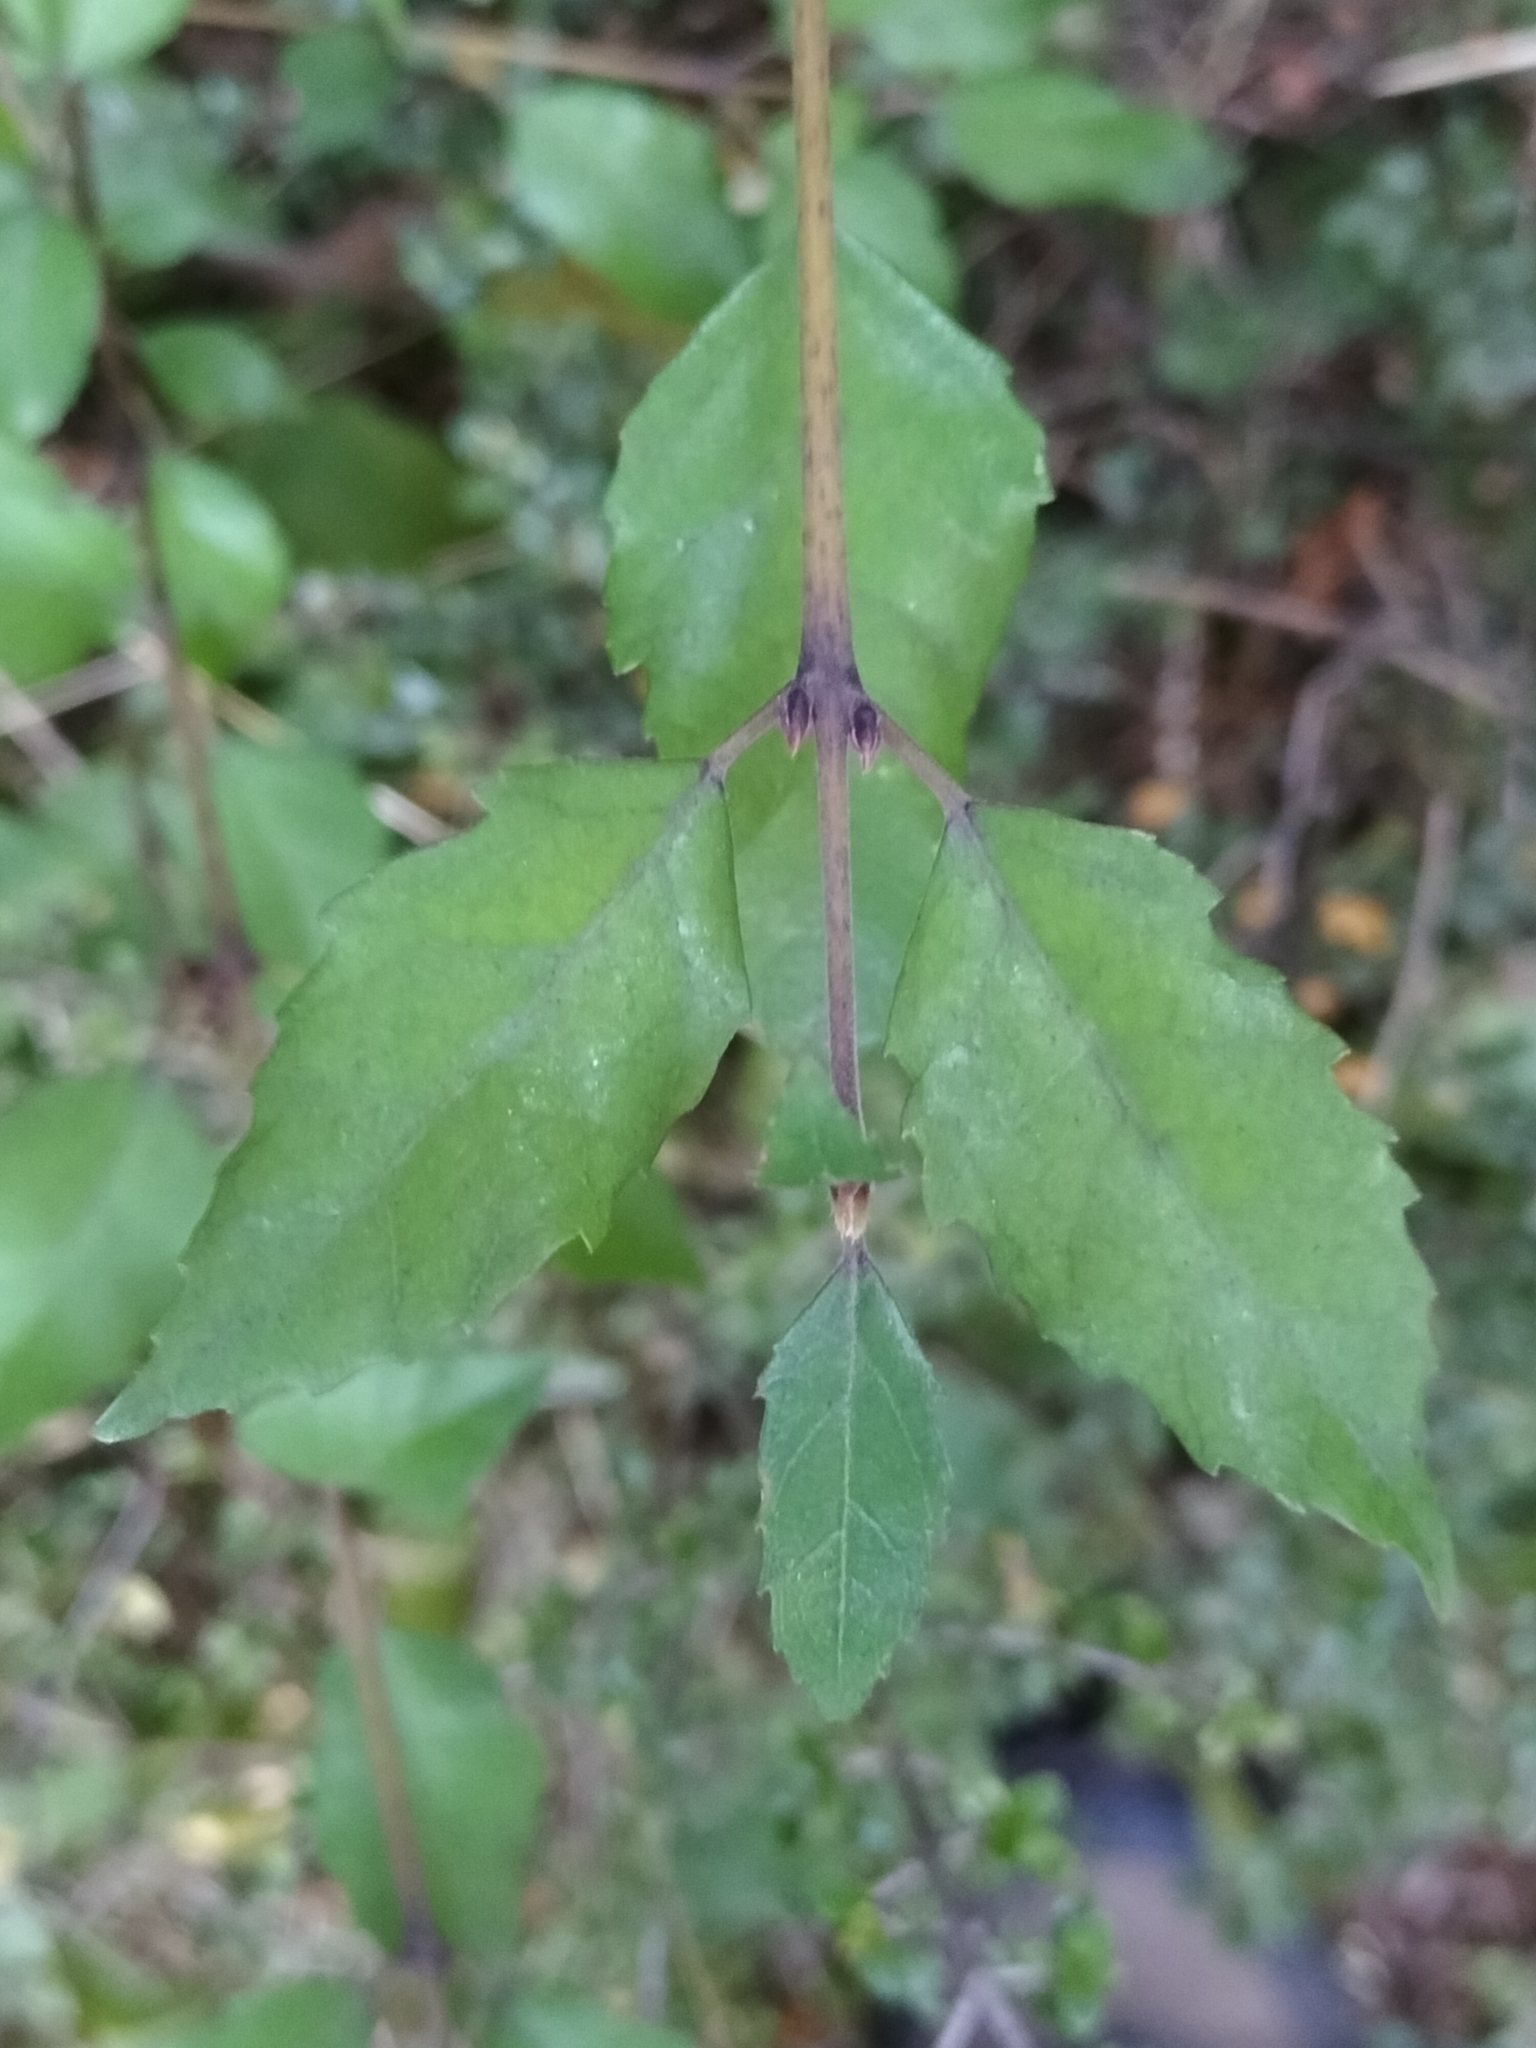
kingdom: Plantae
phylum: Tracheophyta
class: Magnoliopsida
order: Oxalidales
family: Elaeocarpaceae
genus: Aristotelia
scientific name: Aristotelia
